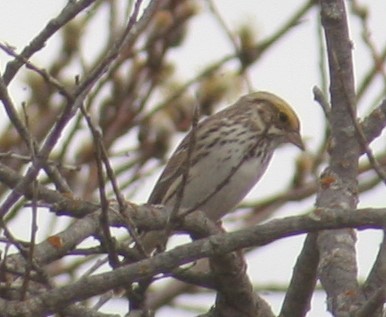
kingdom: Animalia
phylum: Chordata
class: Aves
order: Passeriformes
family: Passerellidae
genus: Passerculus
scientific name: Passerculus sandwichensis
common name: Savannah sparrow
